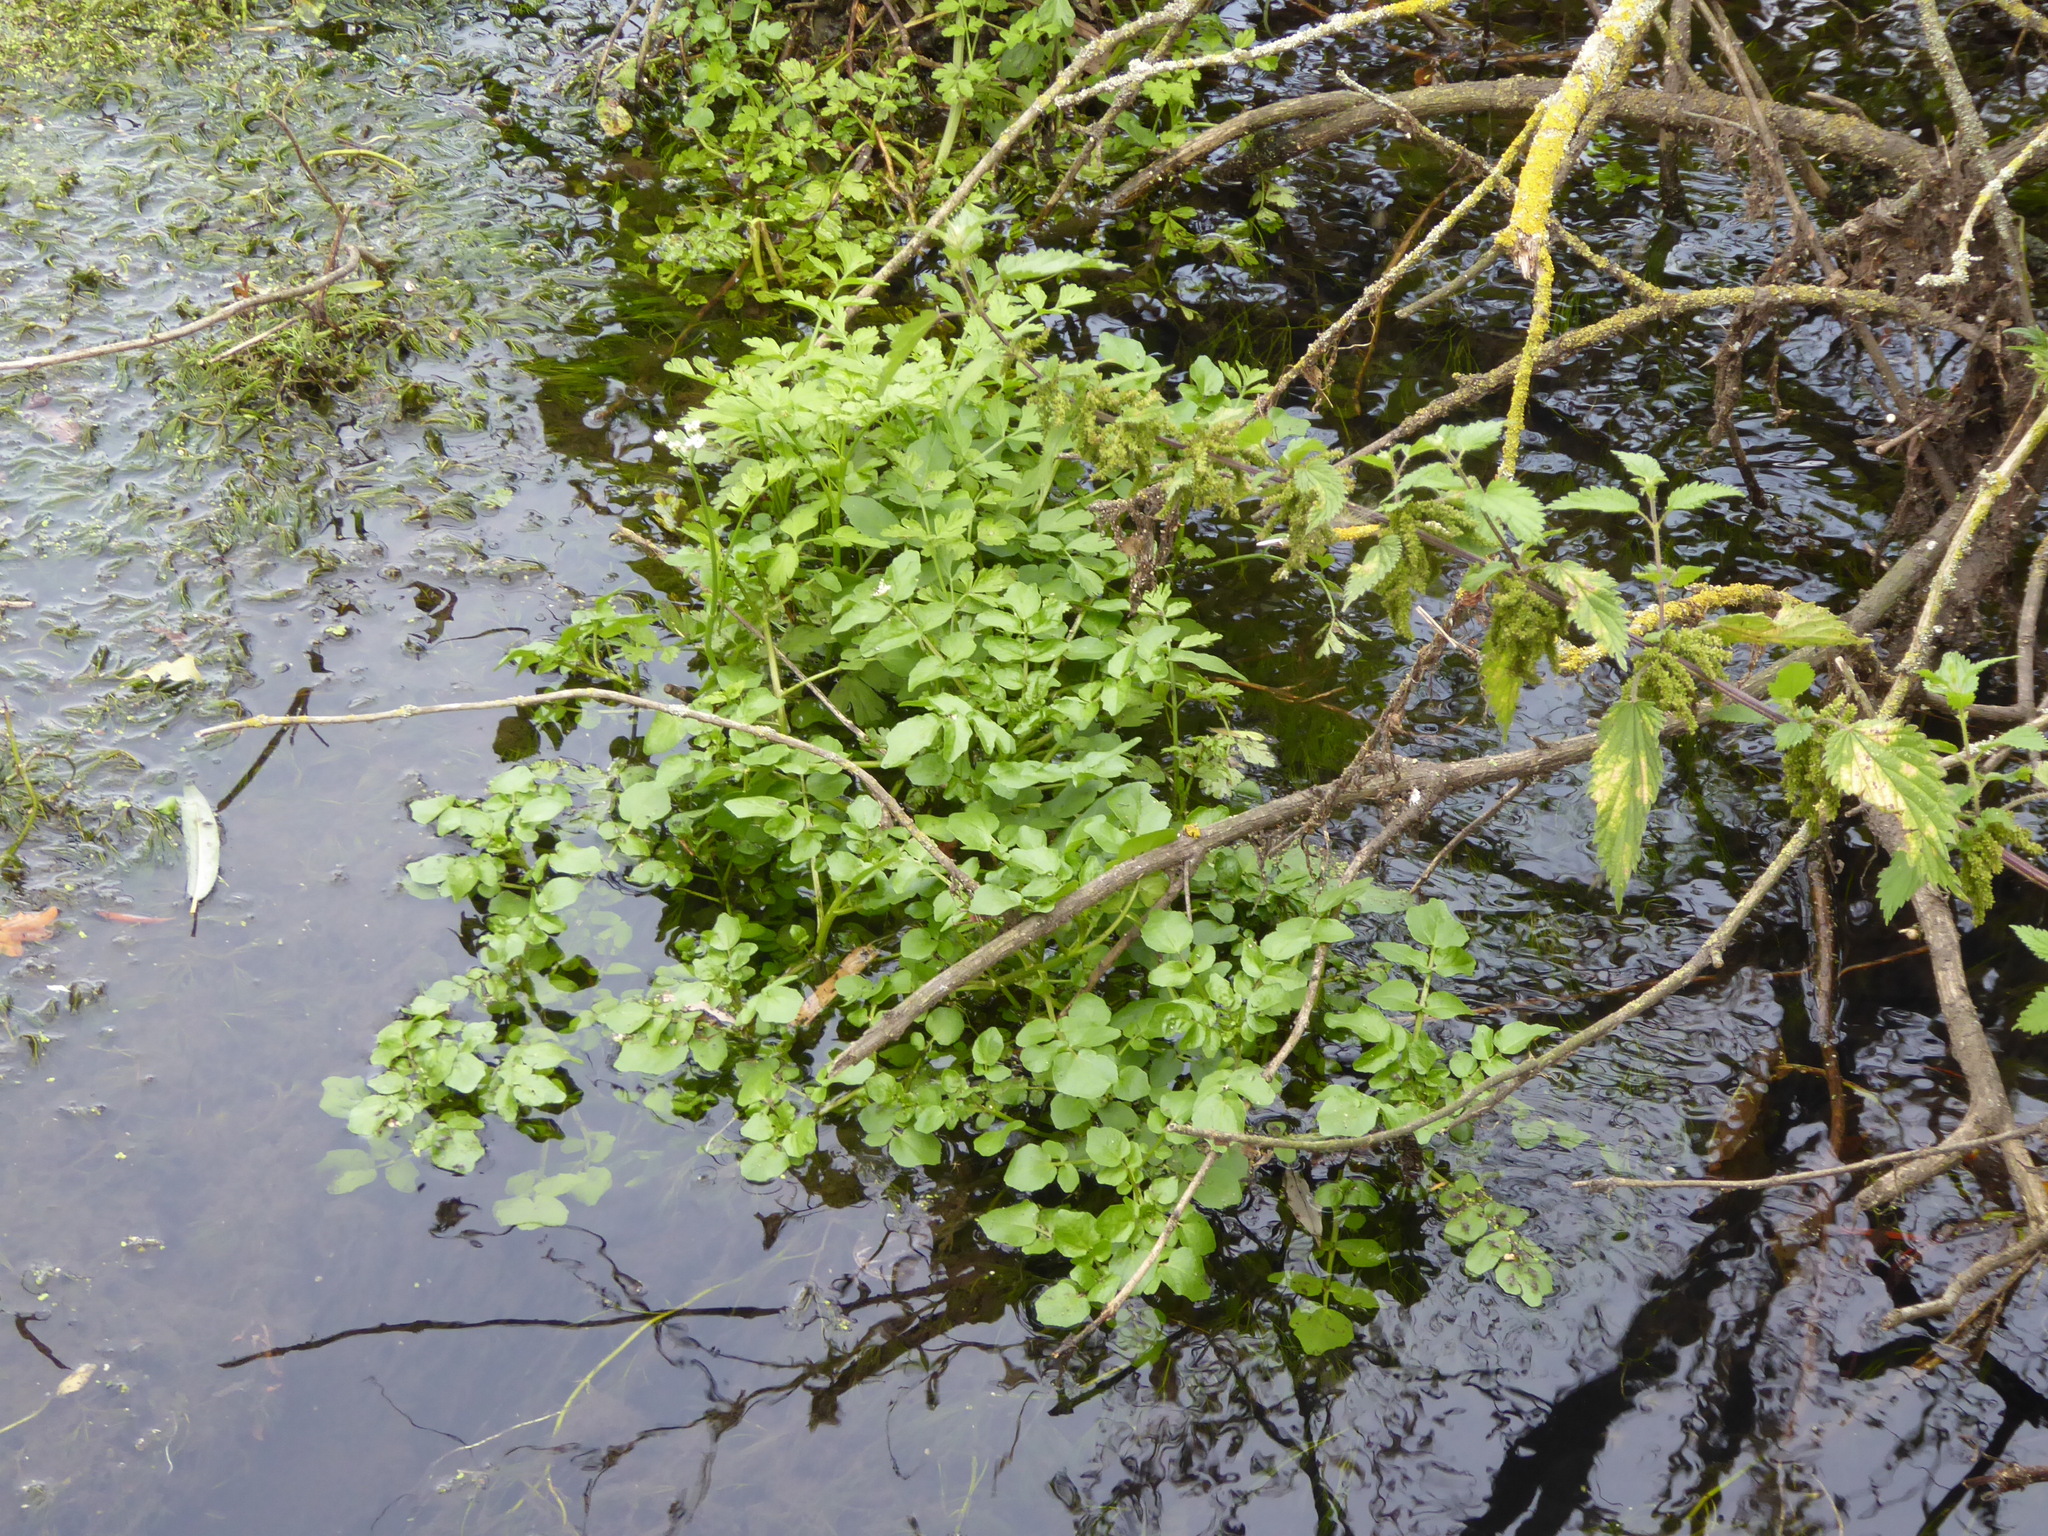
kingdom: Plantae
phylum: Tracheophyta
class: Magnoliopsida
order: Brassicales
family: Brassicaceae
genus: Nasturtium
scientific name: Nasturtium officinale
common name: Watercress
